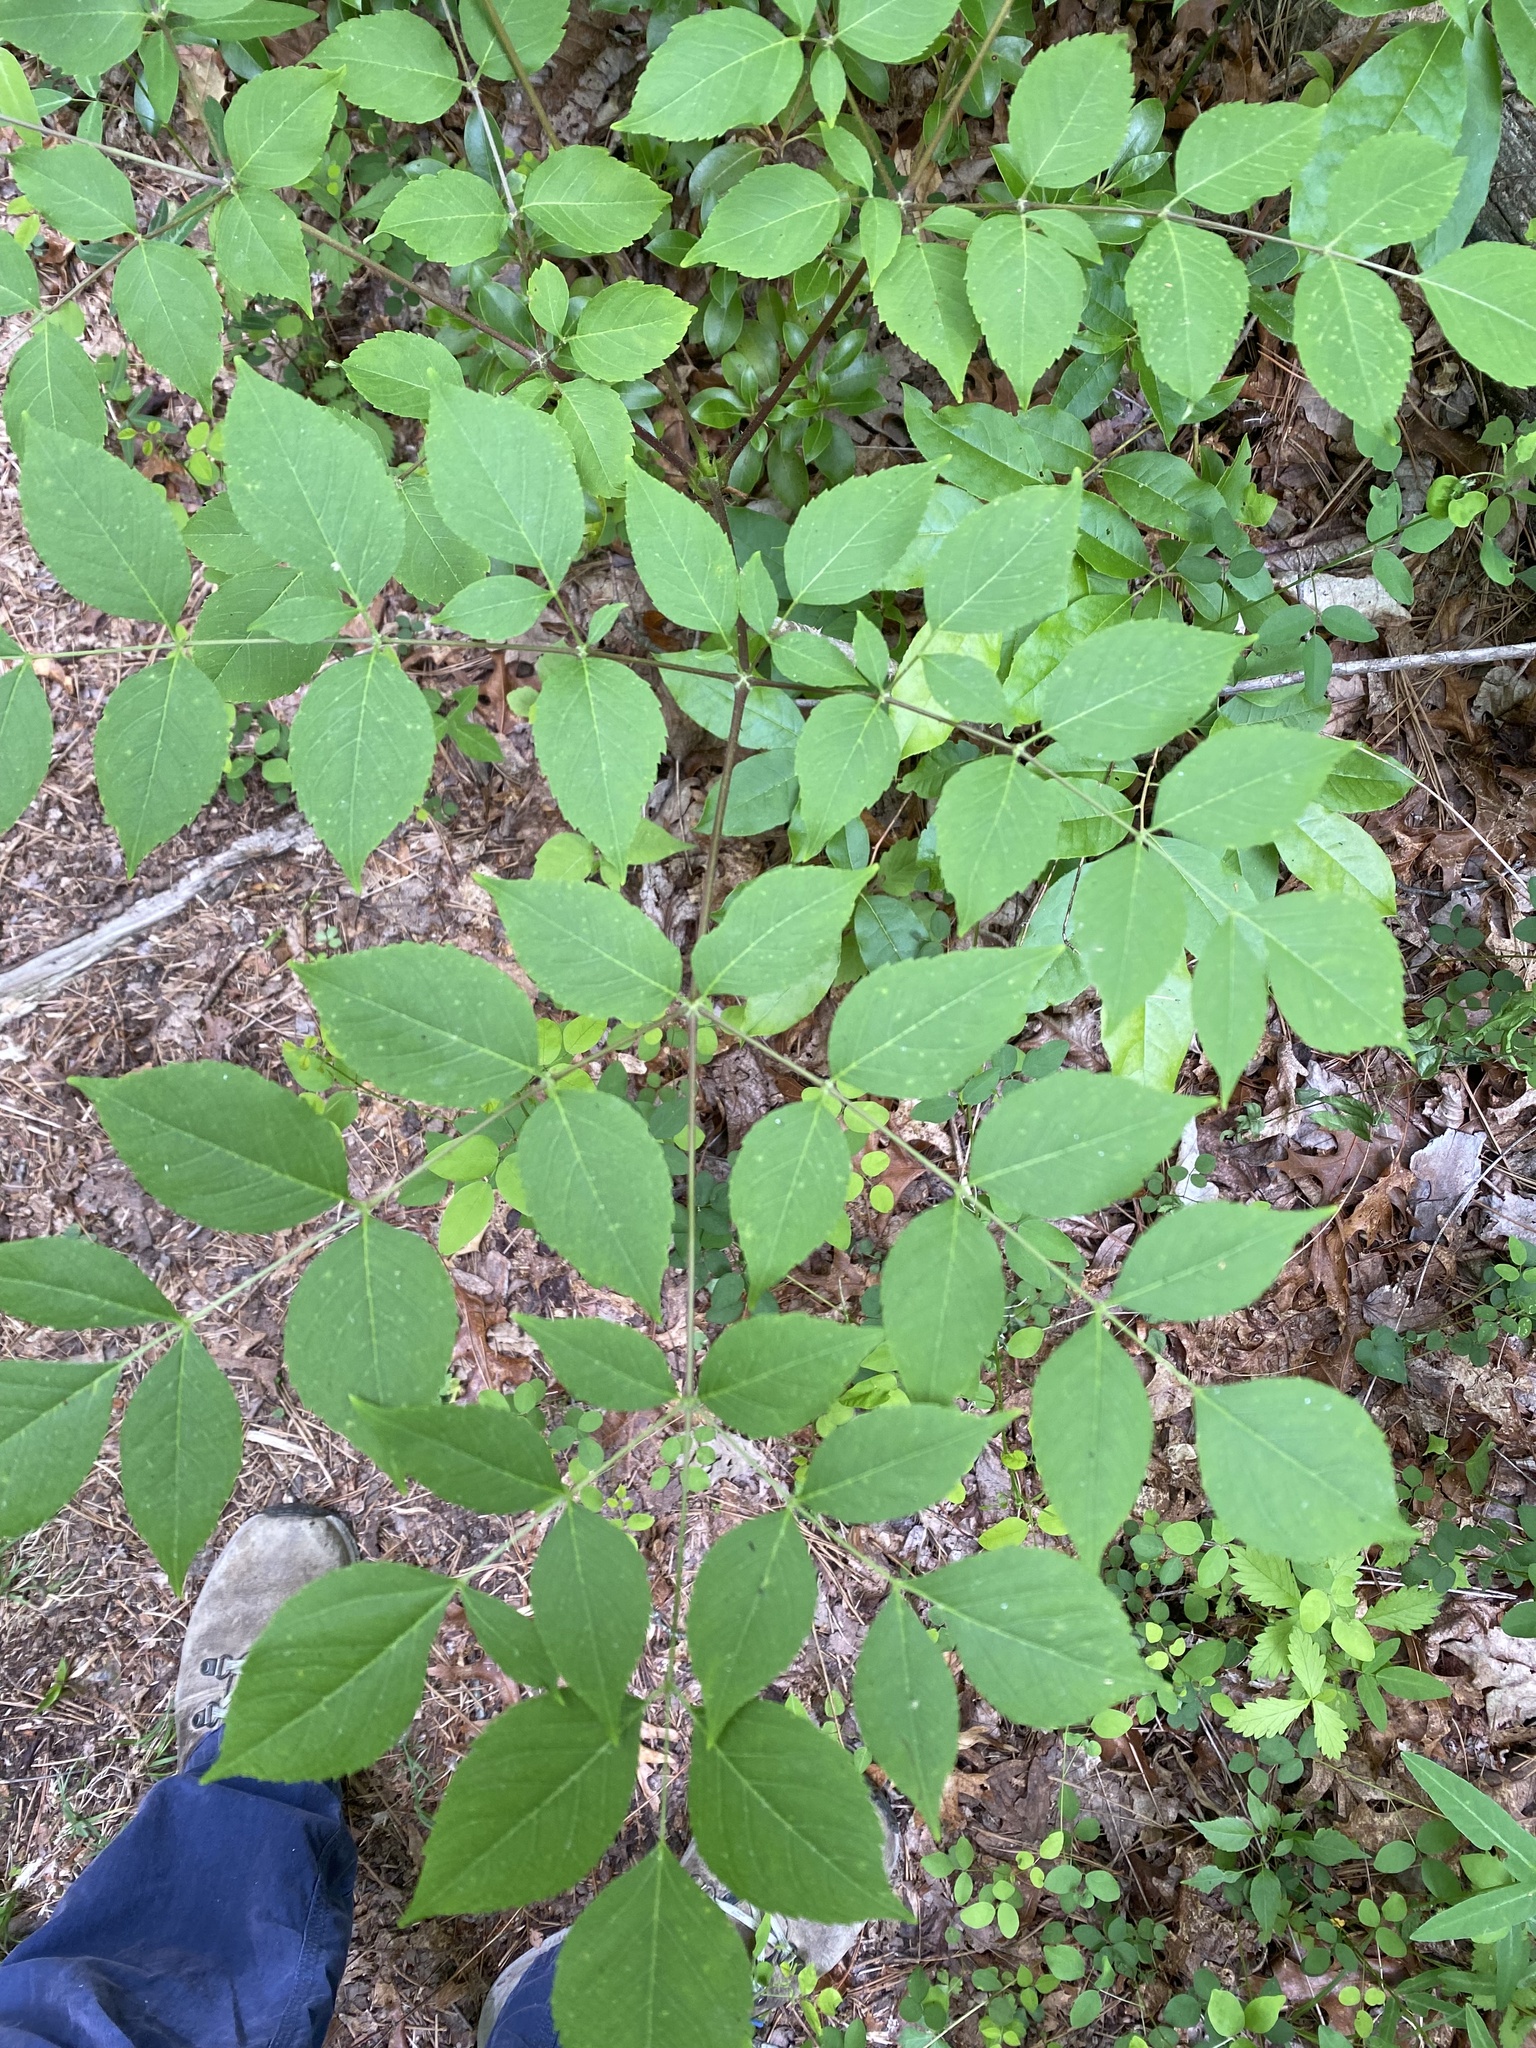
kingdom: Plantae
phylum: Tracheophyta
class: Magnoliopsida
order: Apiales
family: Araliaceae
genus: Aralia
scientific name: Aralia spinosa
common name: Hercules'-club
